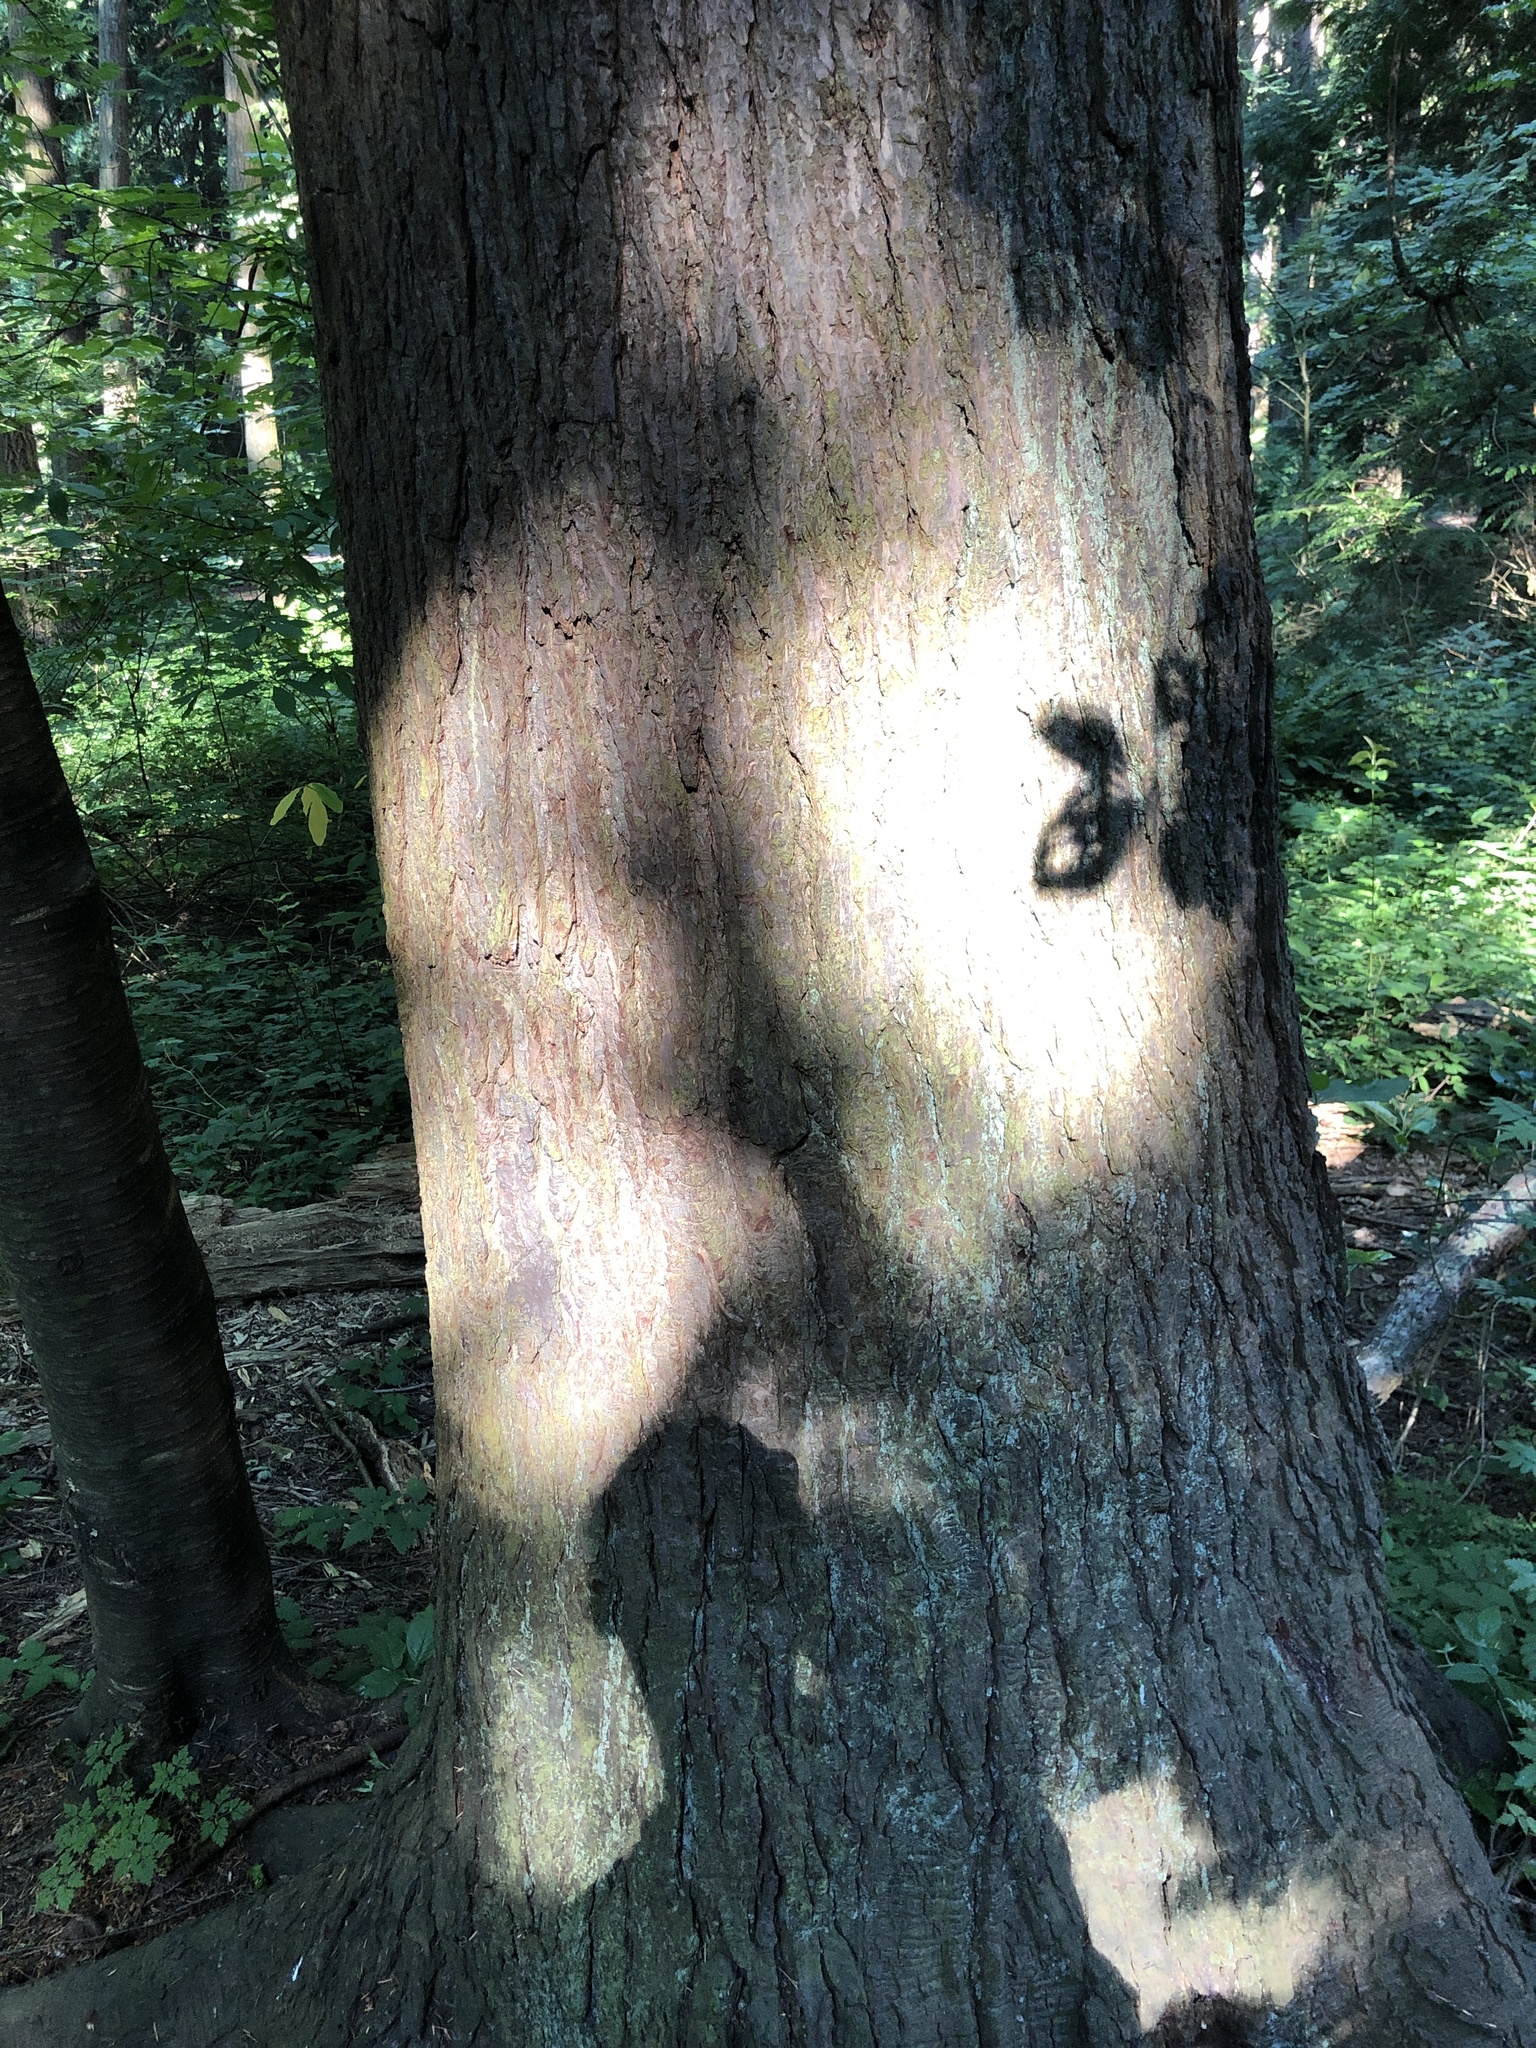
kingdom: Plantae
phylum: Tracheophyta
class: Pinopsida
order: Pinales
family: Pinaceae
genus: Tsuga
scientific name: Tsuga heterophylla
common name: Western hemlock
